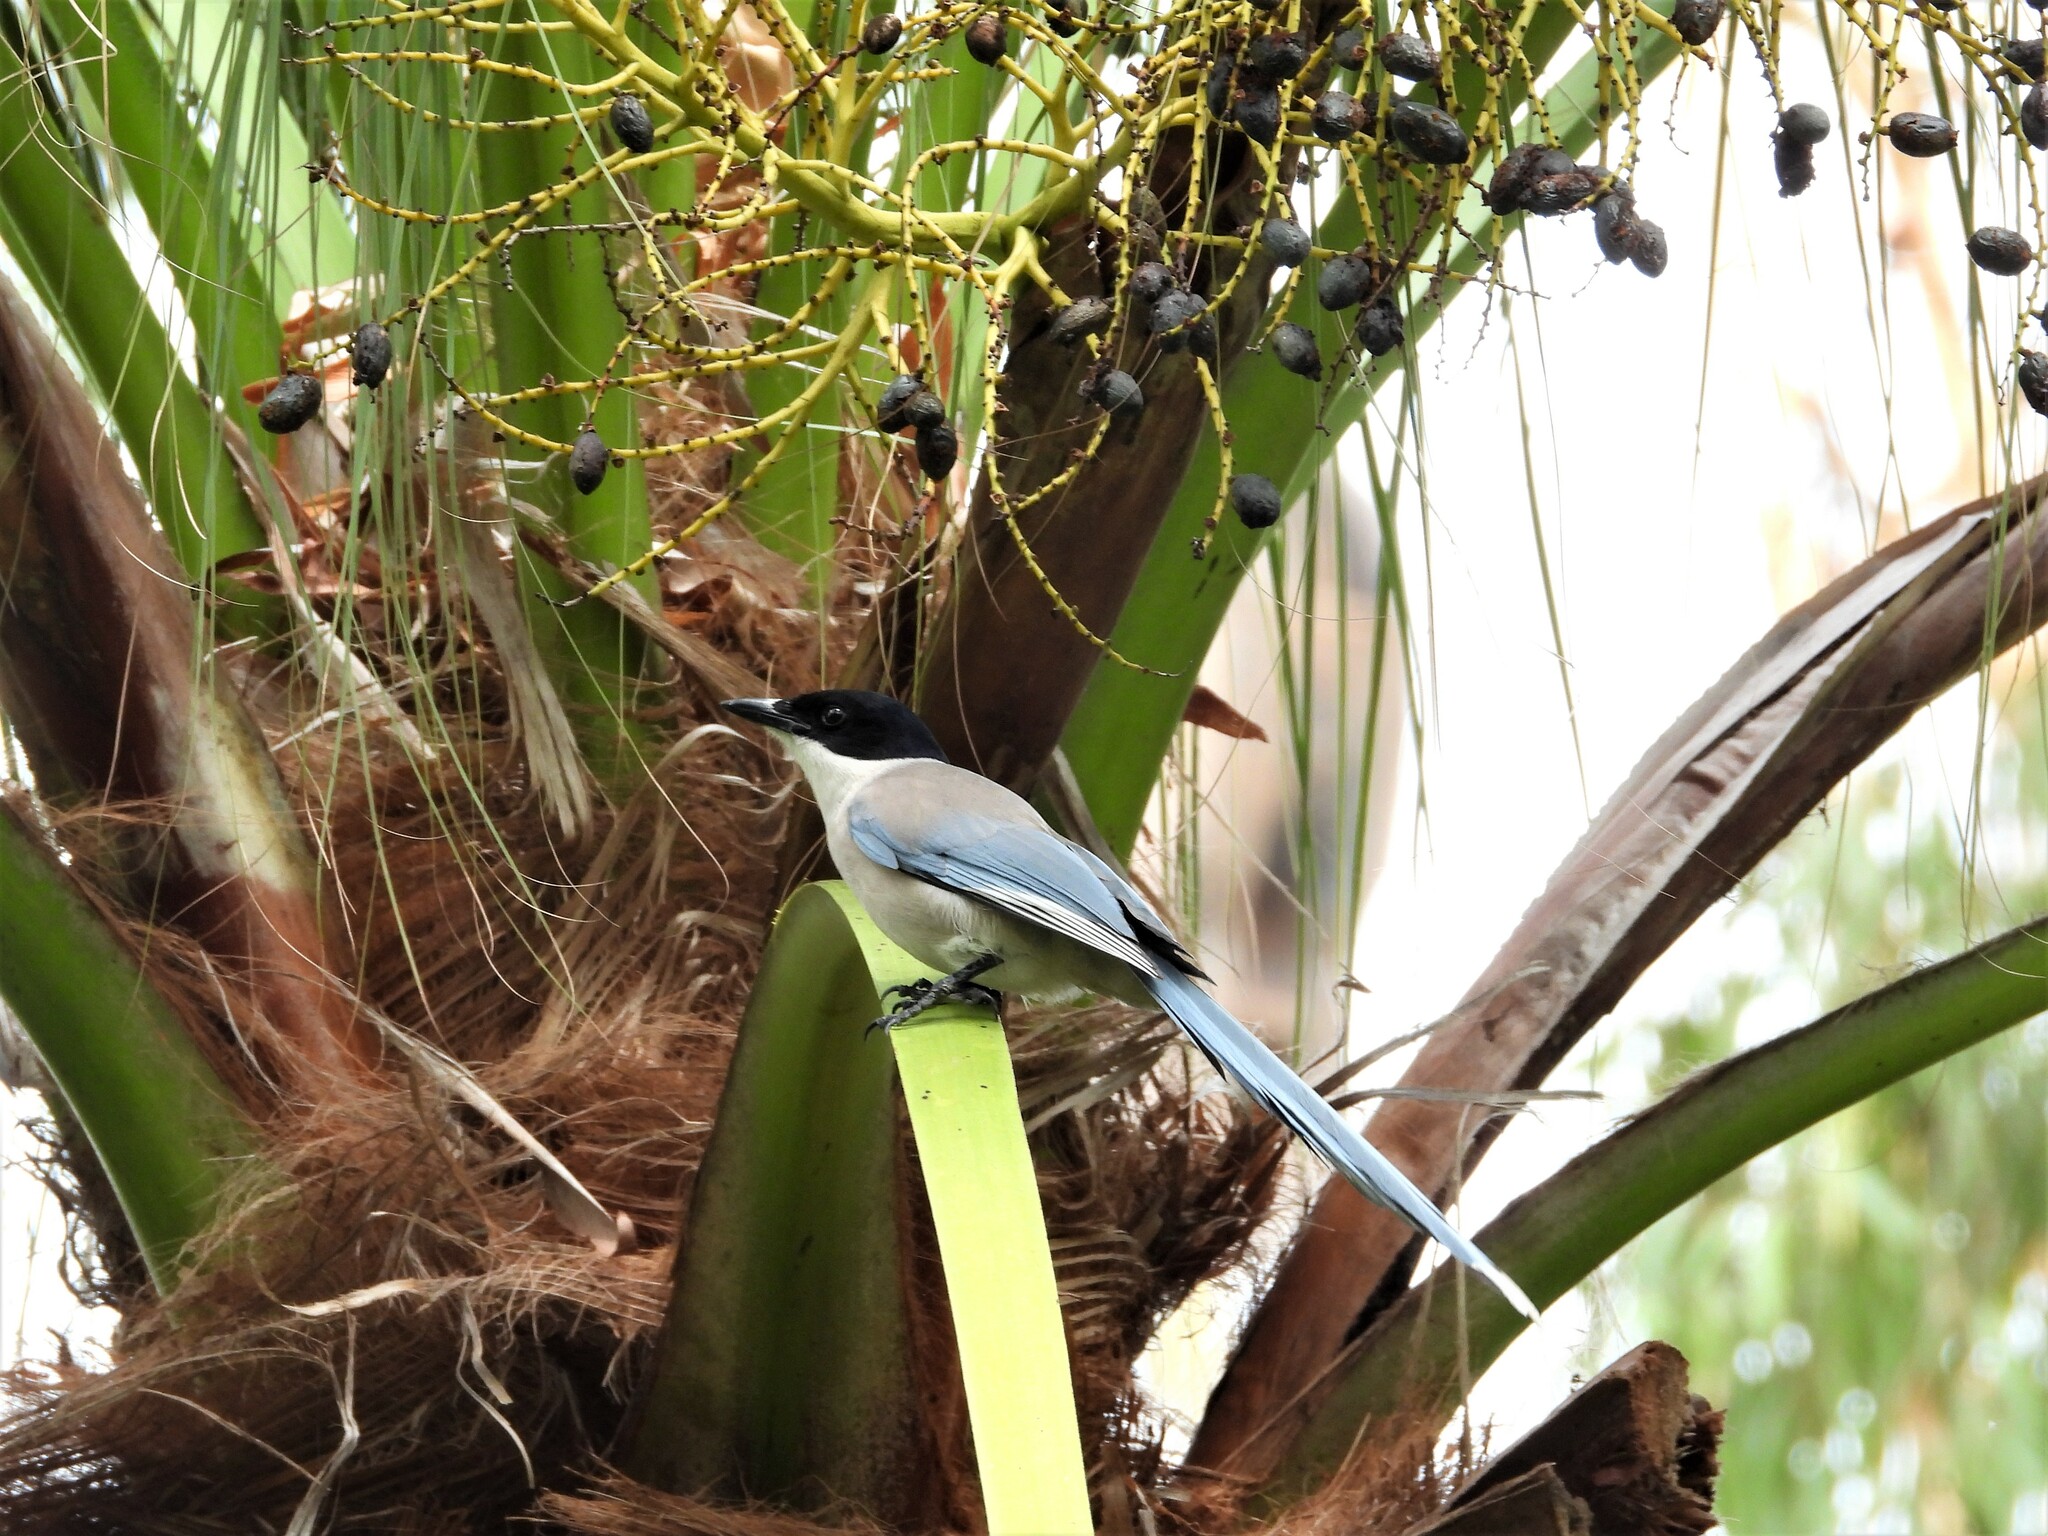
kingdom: Animalia
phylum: Chordata
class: Aves
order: Passeriformes
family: Corvidae
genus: Cyanopica
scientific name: Cyanopica cyanus
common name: Azure-winged magpie
